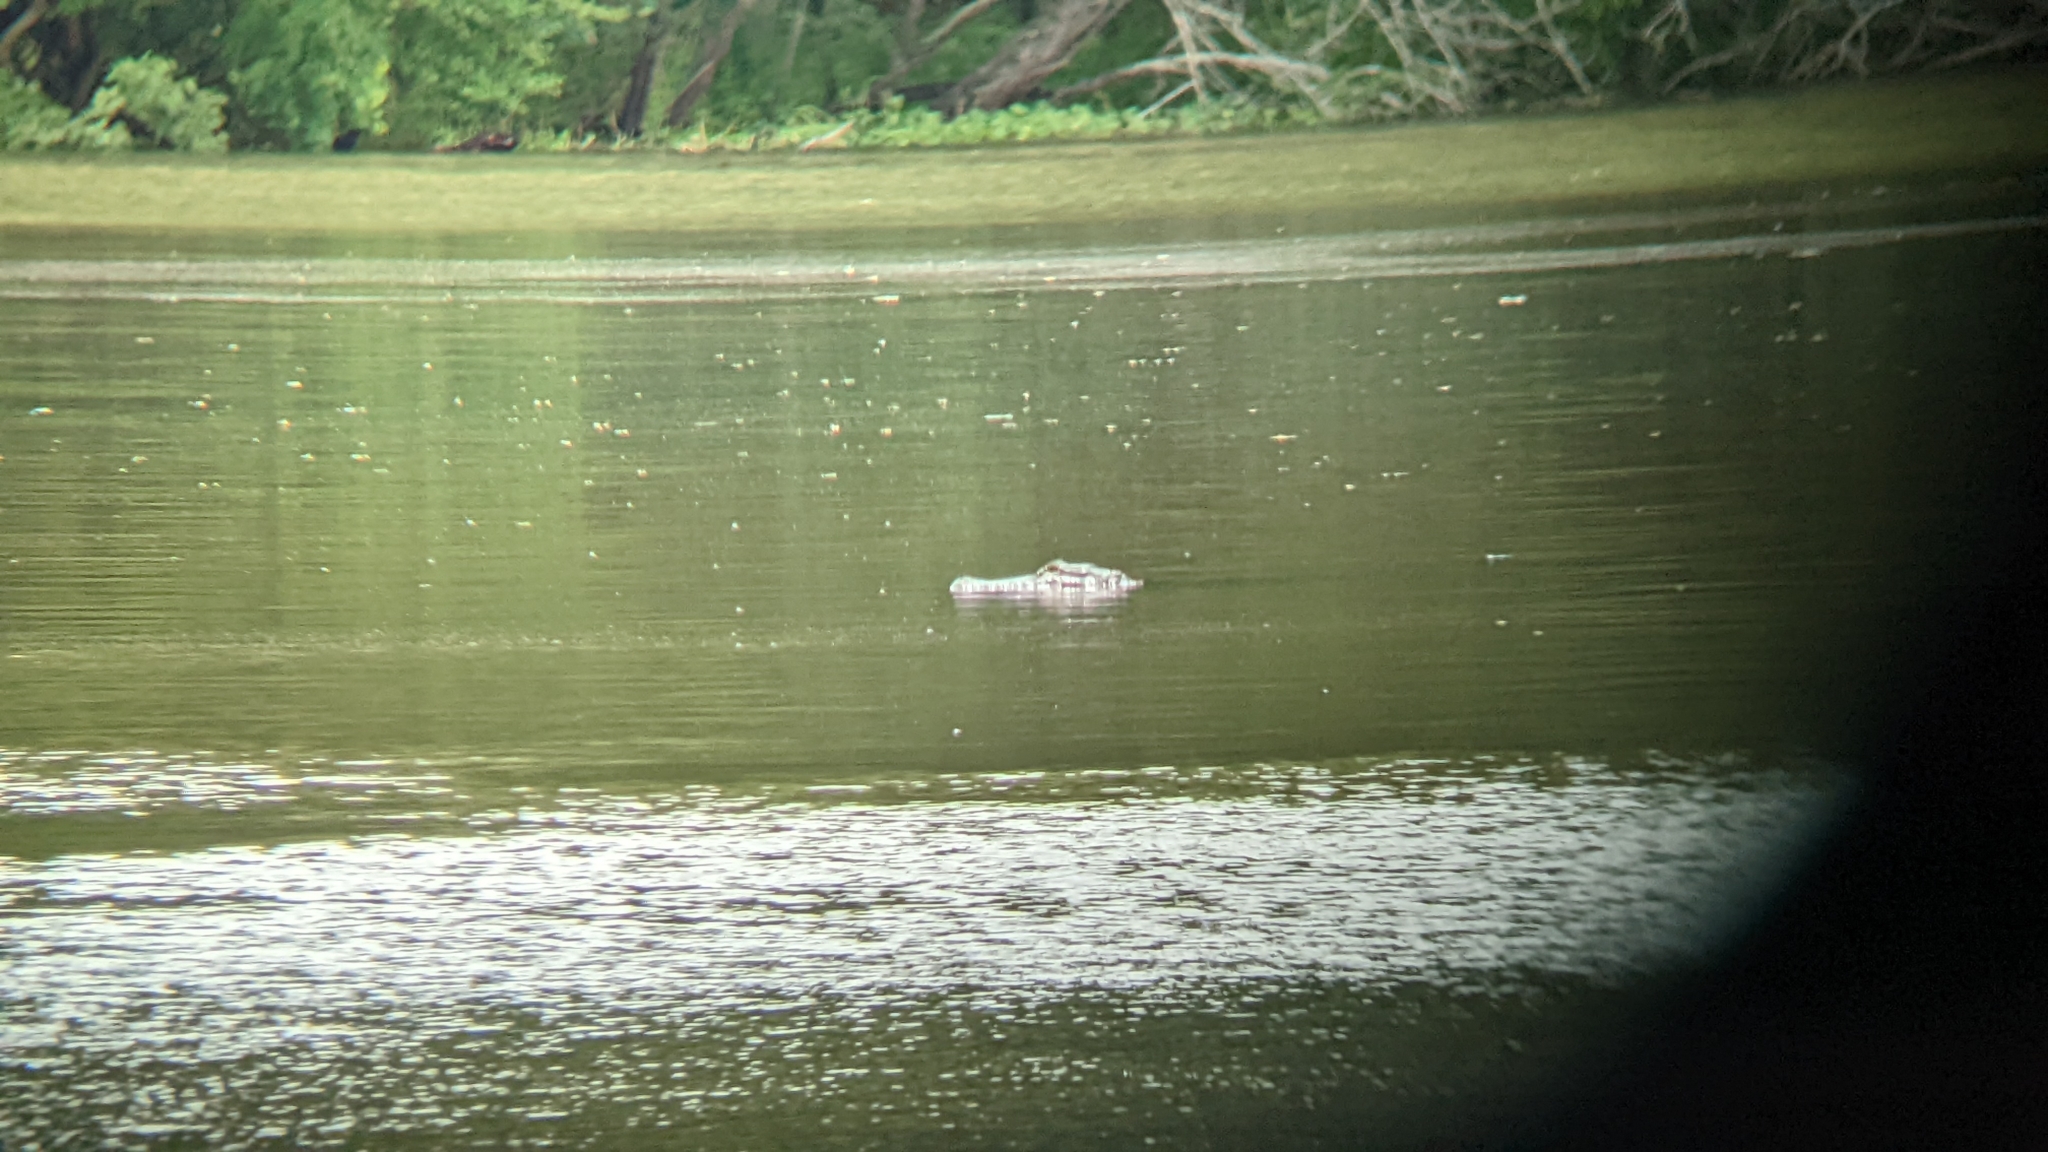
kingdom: Animalia
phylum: Chordata
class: Crocodylia
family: Alligatoridae
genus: Alligator
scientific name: Alligator mississippiensis
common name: American alligator
